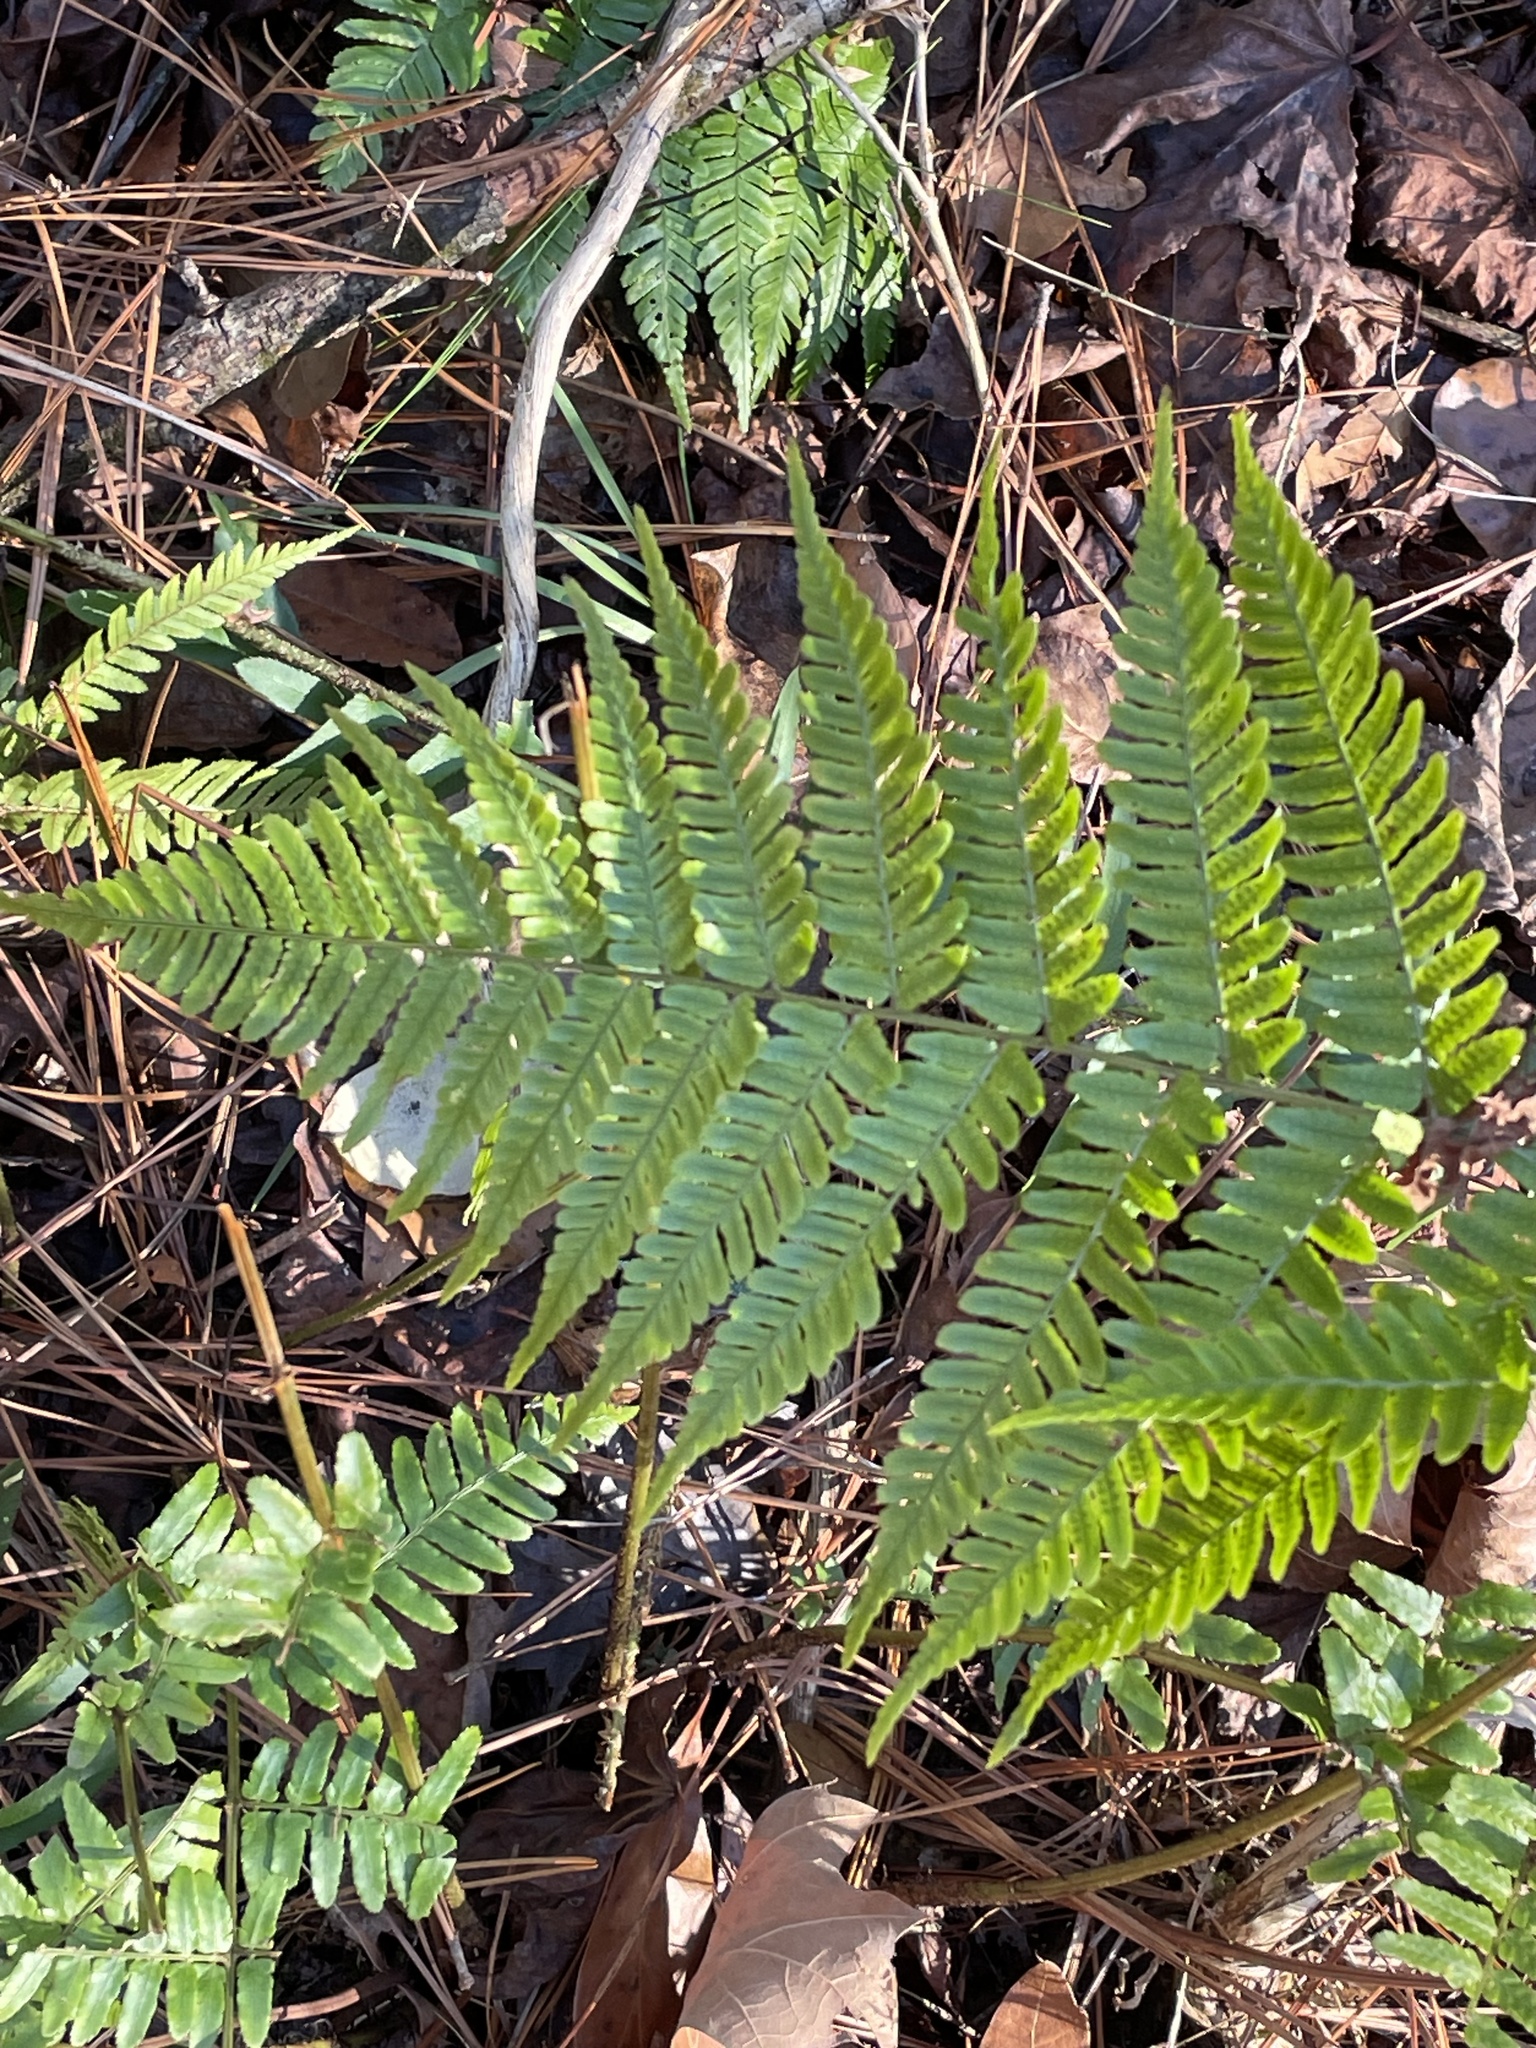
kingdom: Plantae
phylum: Tracheophyta
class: Polypodiopsida
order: Polypodiales
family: Dryopteridaceae
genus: Dryopteris
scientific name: Dryopteris erythrosora
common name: Autumn fern
